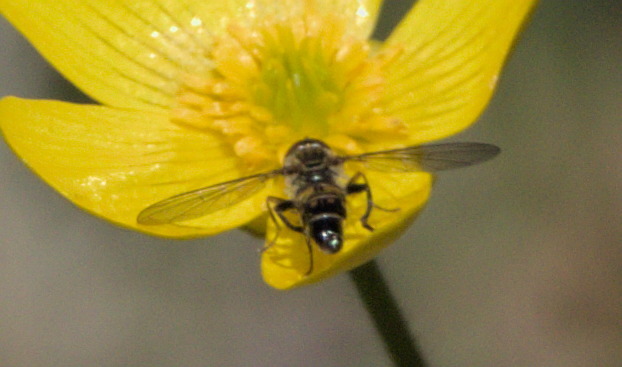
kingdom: Animalia
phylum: Arthropoda
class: Insecta
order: Diptera
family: Syrphidae
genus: Toxomerus
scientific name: Toxomerus occidentalis
